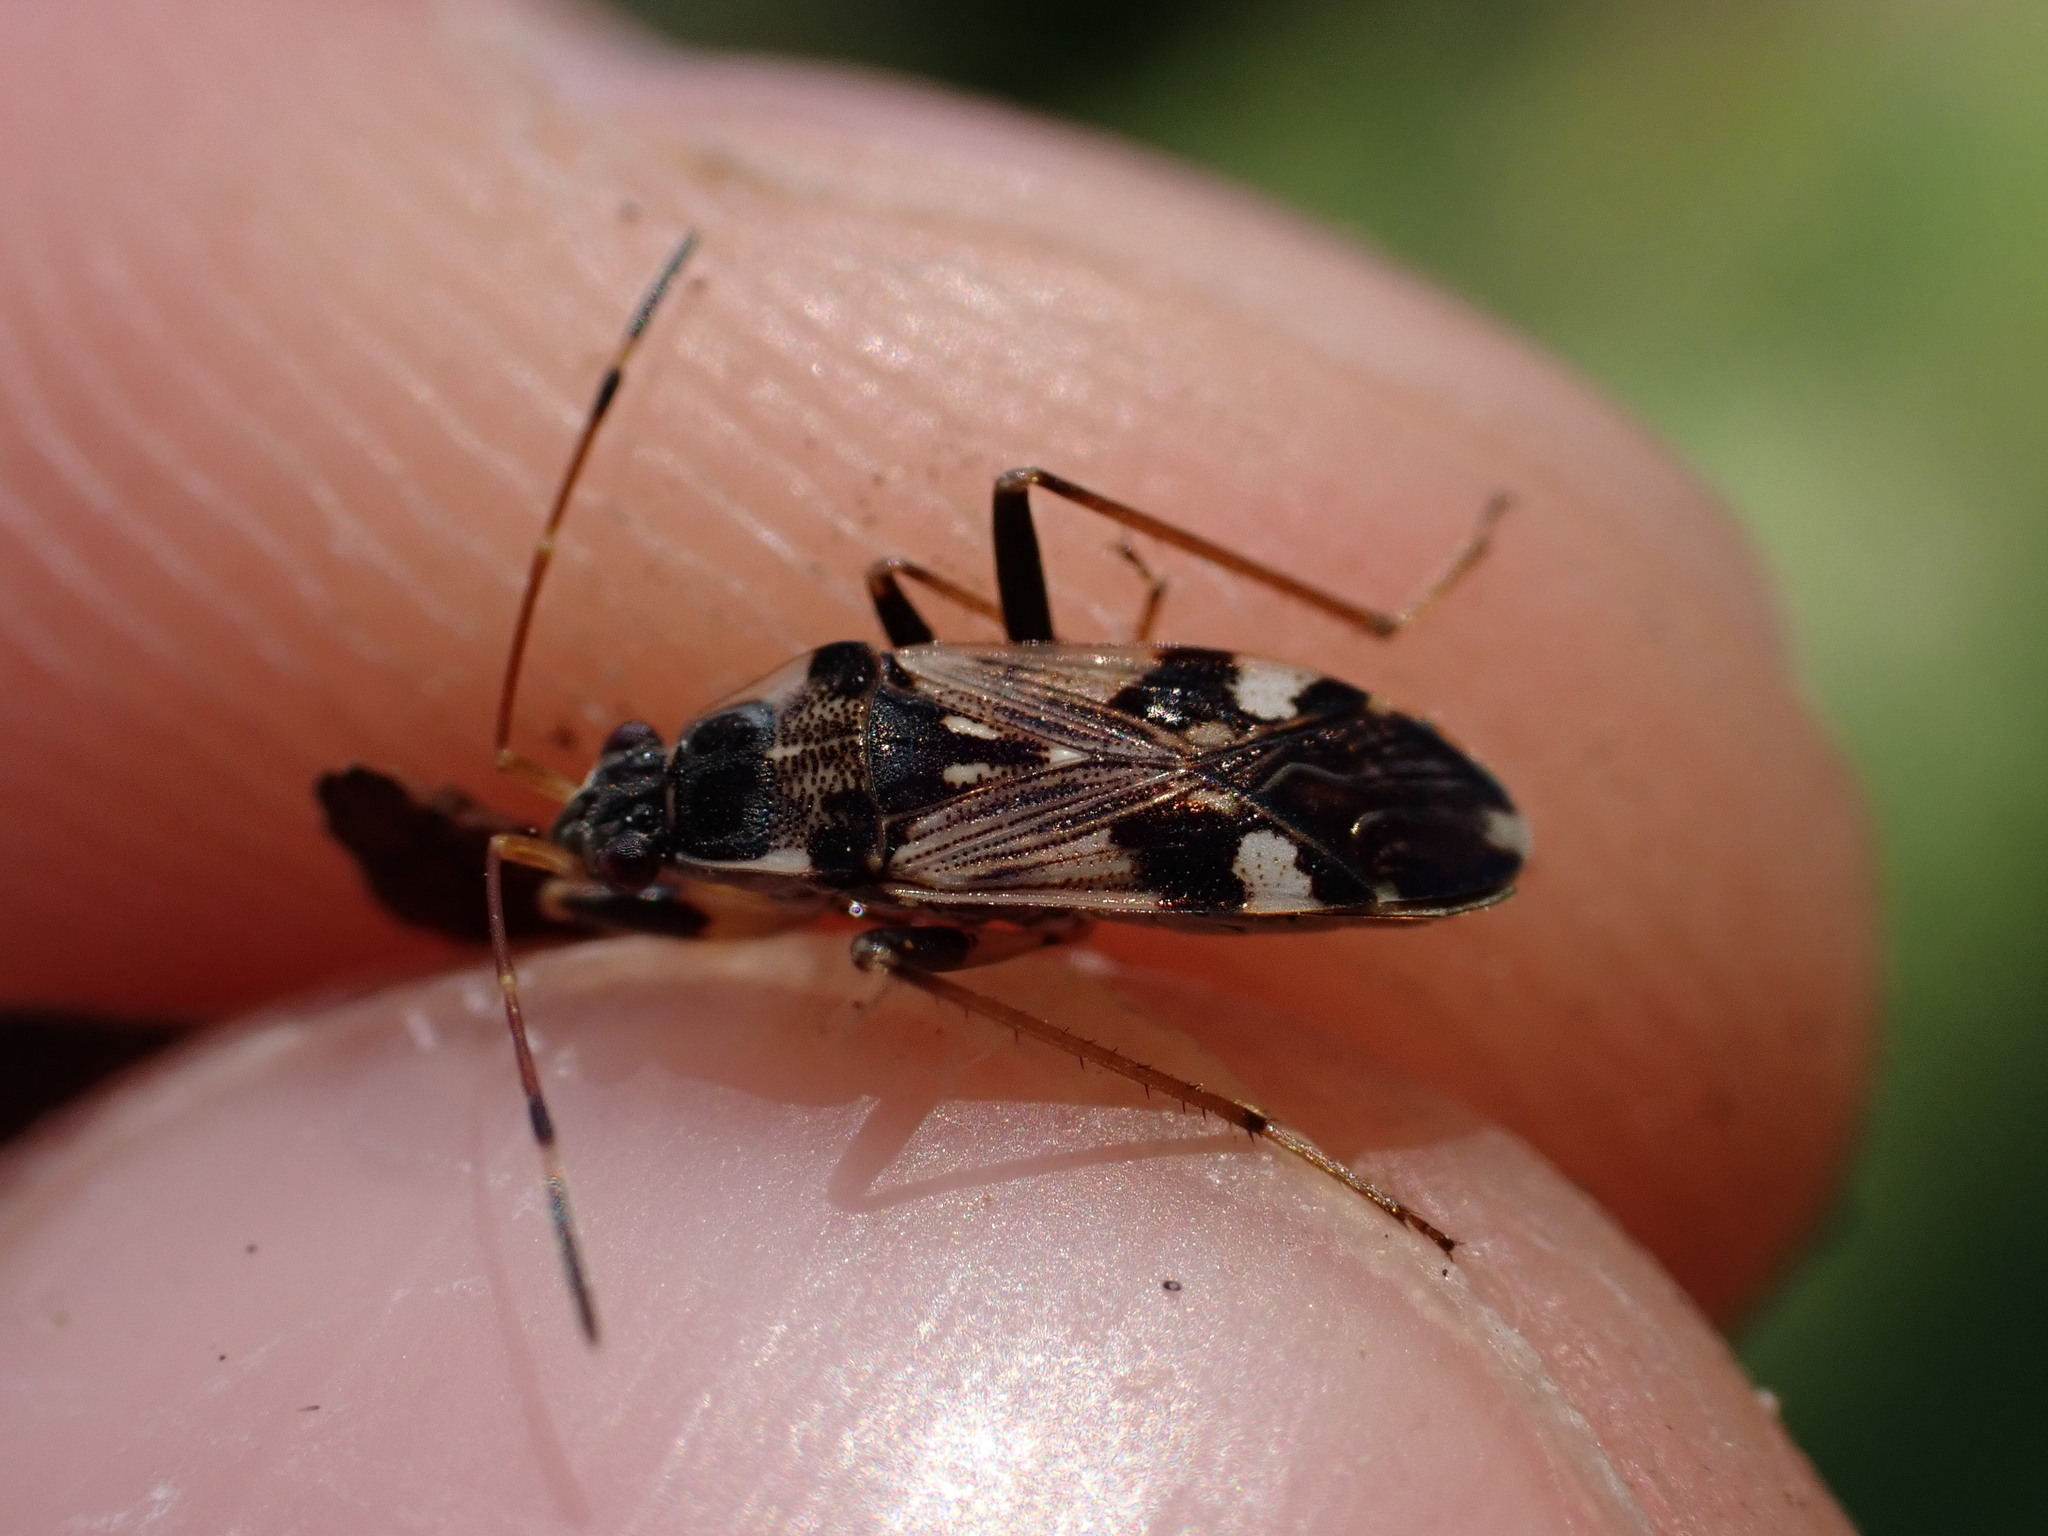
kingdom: Animalia
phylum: Arthropoda
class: Insecta
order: Hemiptera
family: Rhyparochromidae
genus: Beosus
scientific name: Beosus maritimus
